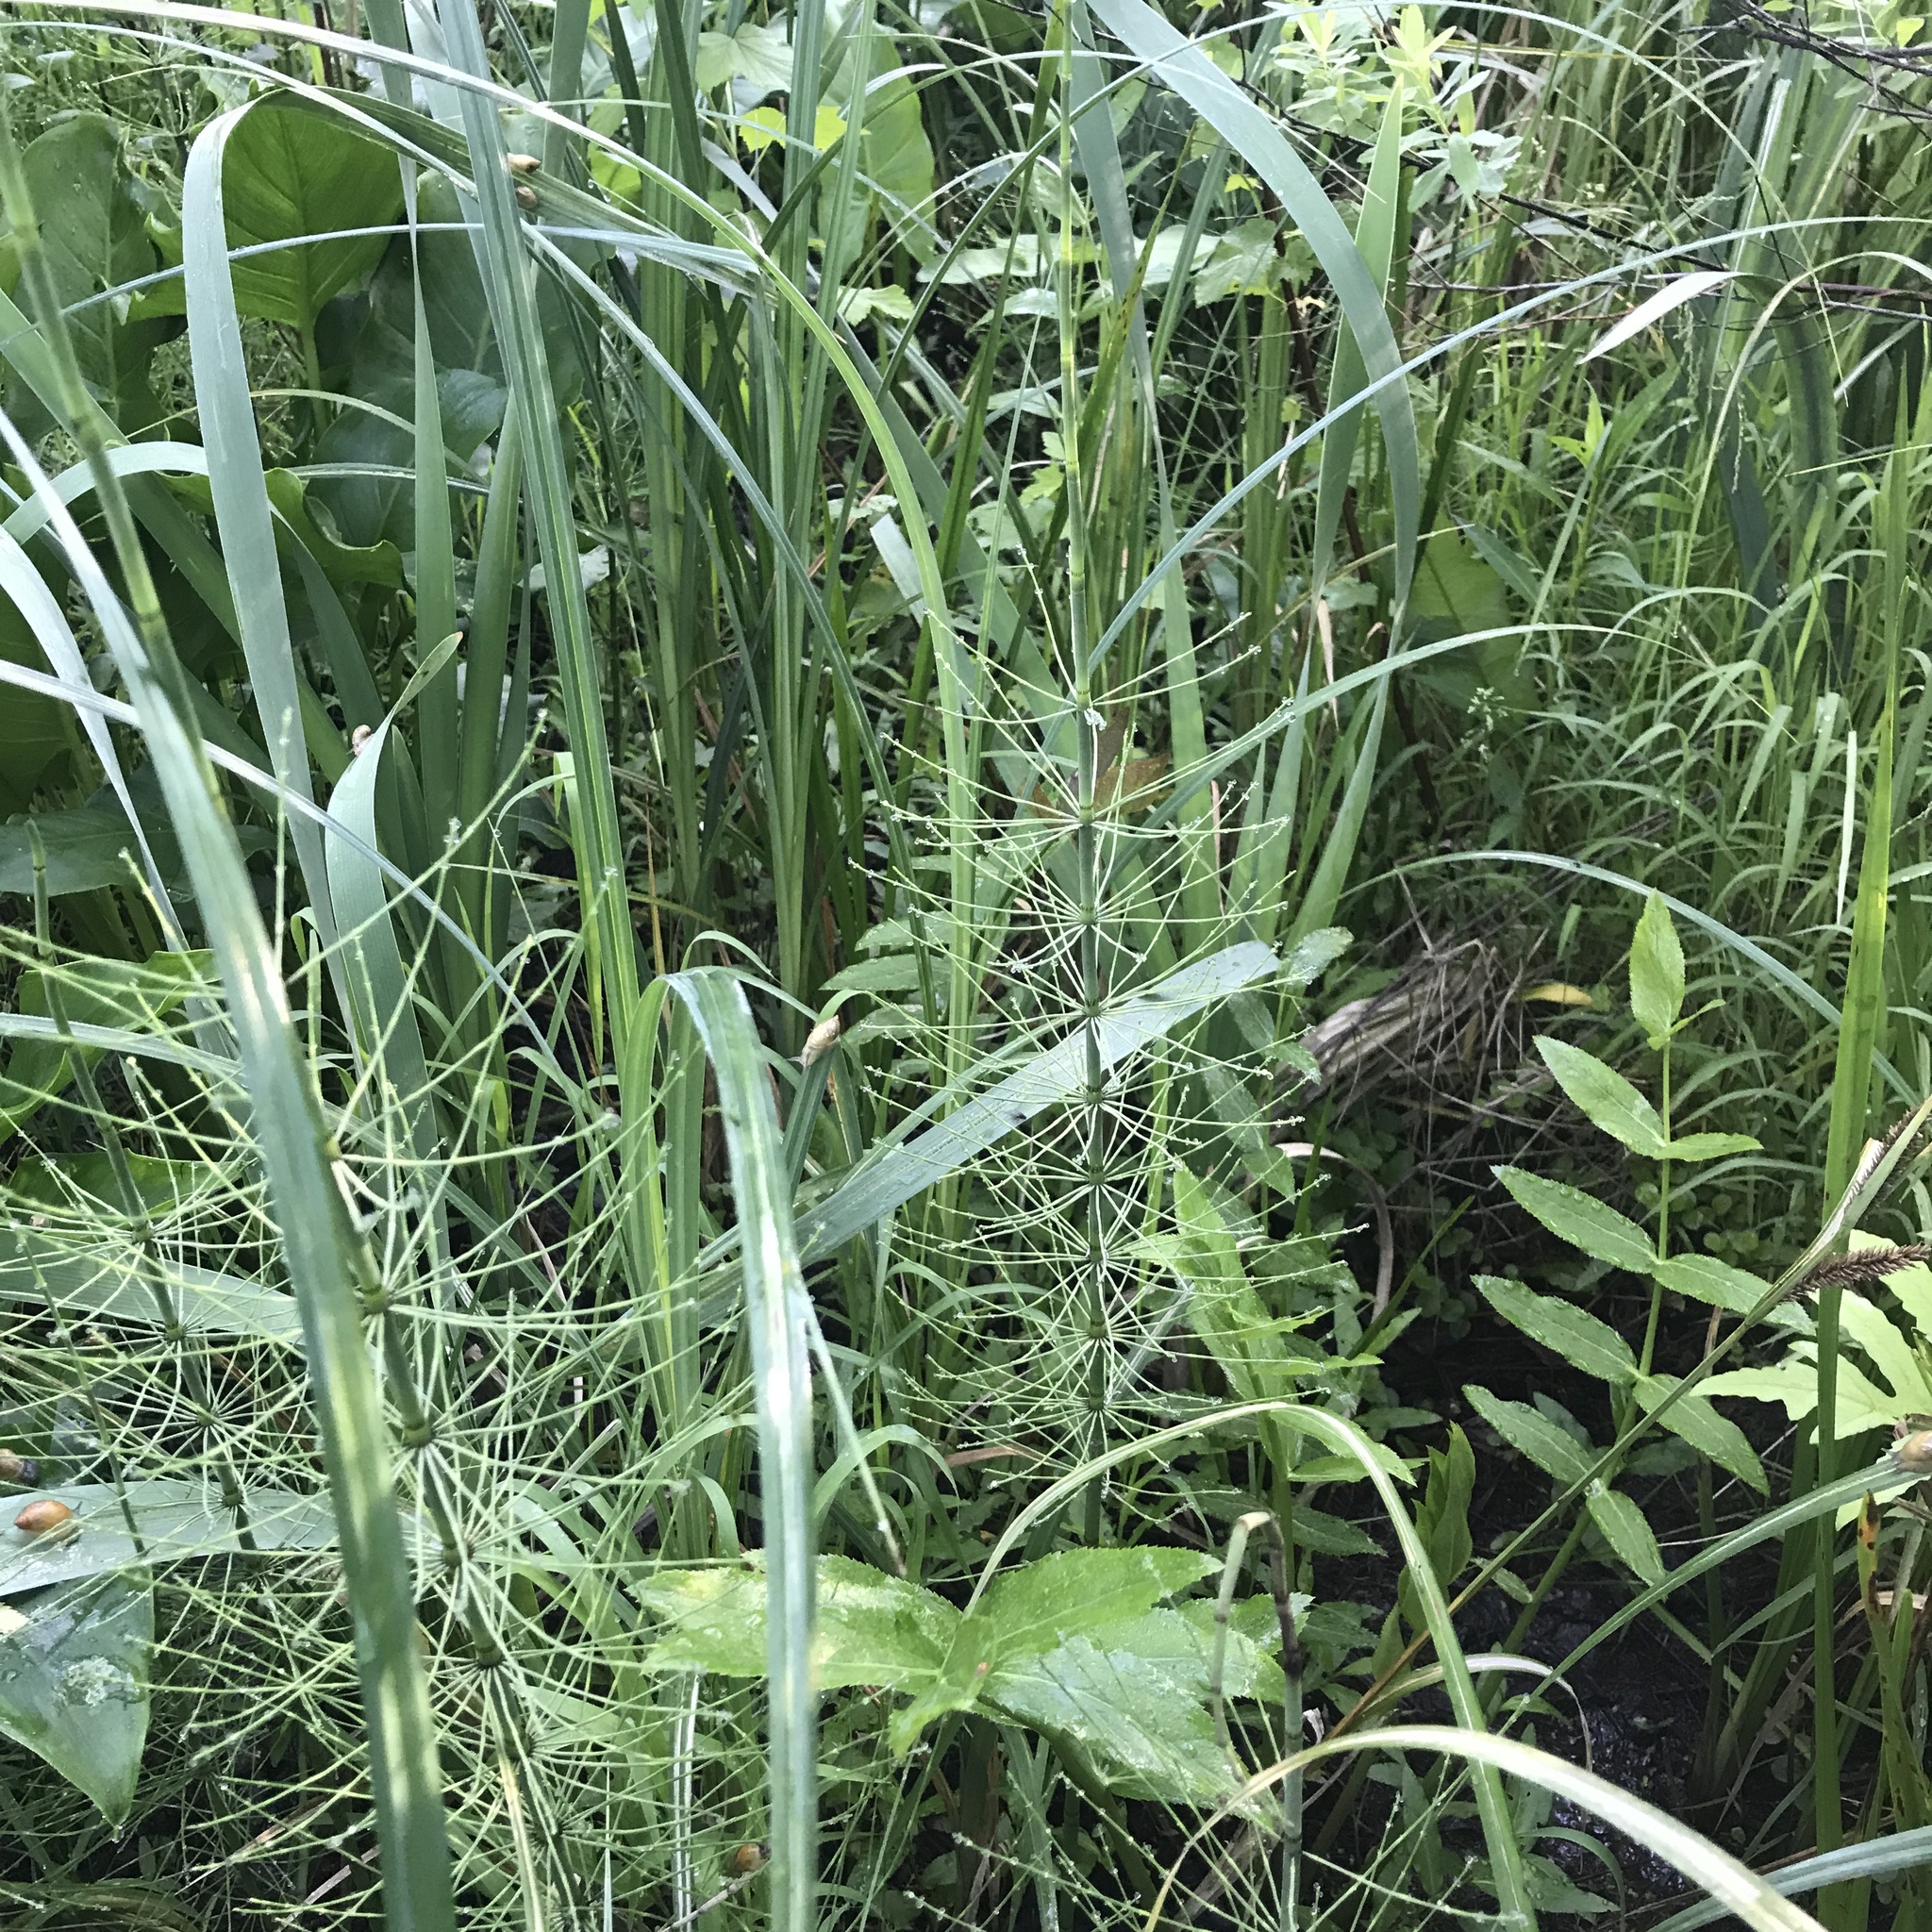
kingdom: Plantae
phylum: Tracheophyta
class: Polypodiopsida
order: Equisetales
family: Equisetaceae
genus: Equisetum
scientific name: Equisetum fluviatile
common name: Water horsetail
